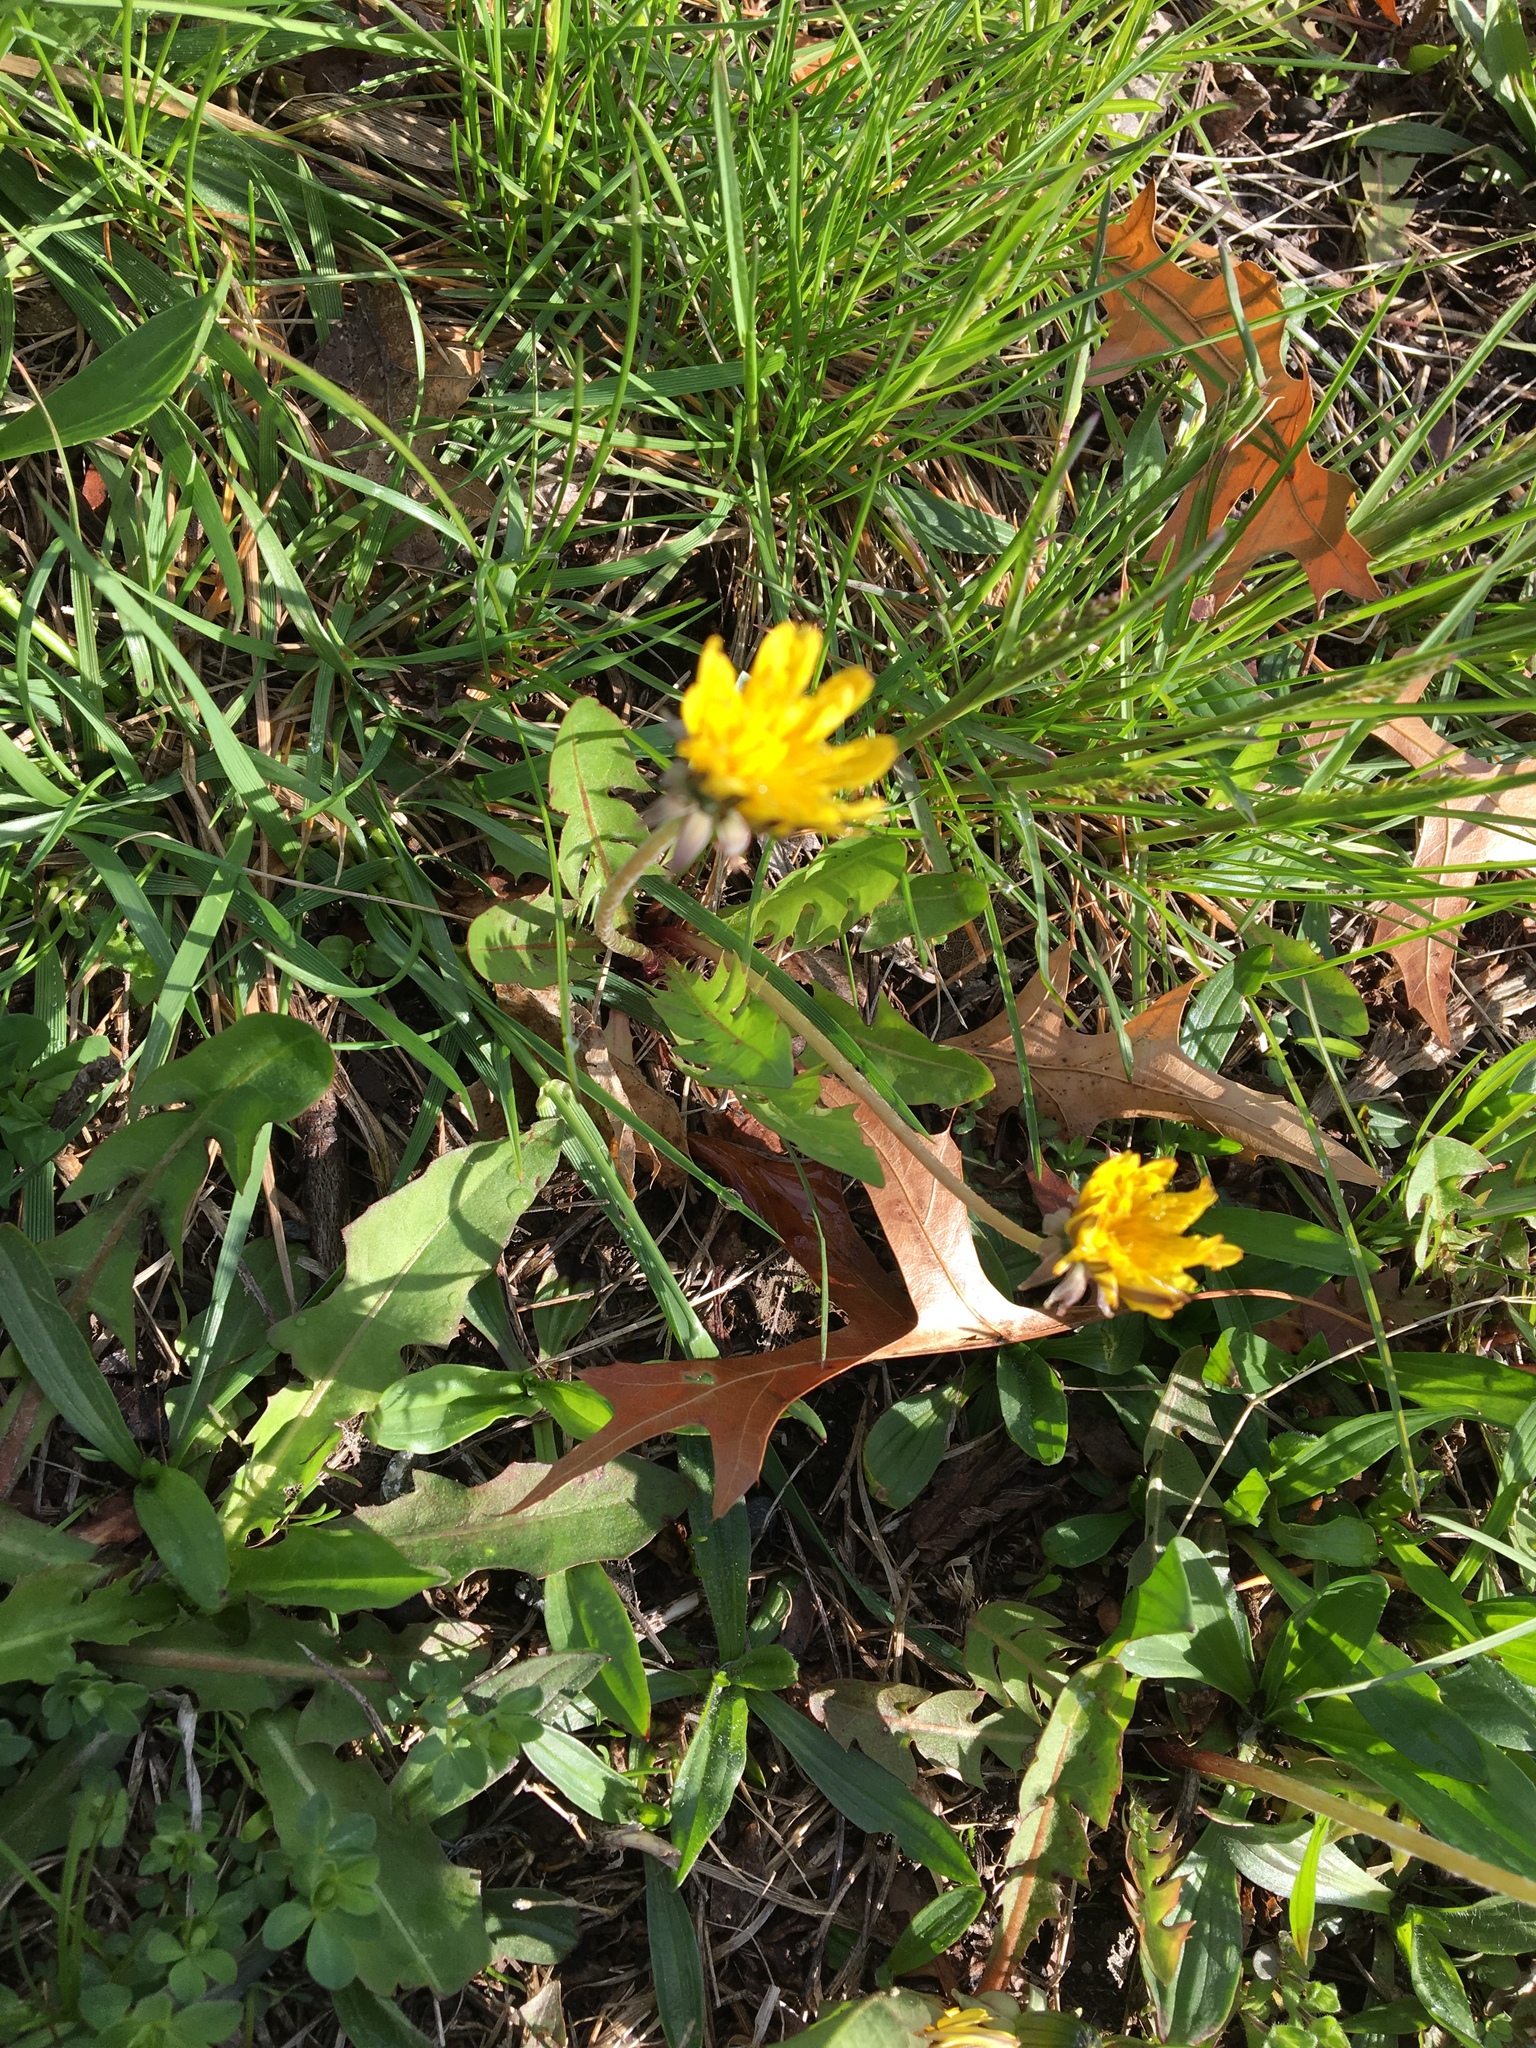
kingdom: Plantae
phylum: Tracheophyta
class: Magnoliopsida
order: Asterales
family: Asteraceae
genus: Taraxacum
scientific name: Taraxacum officinale
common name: Common dandelion
